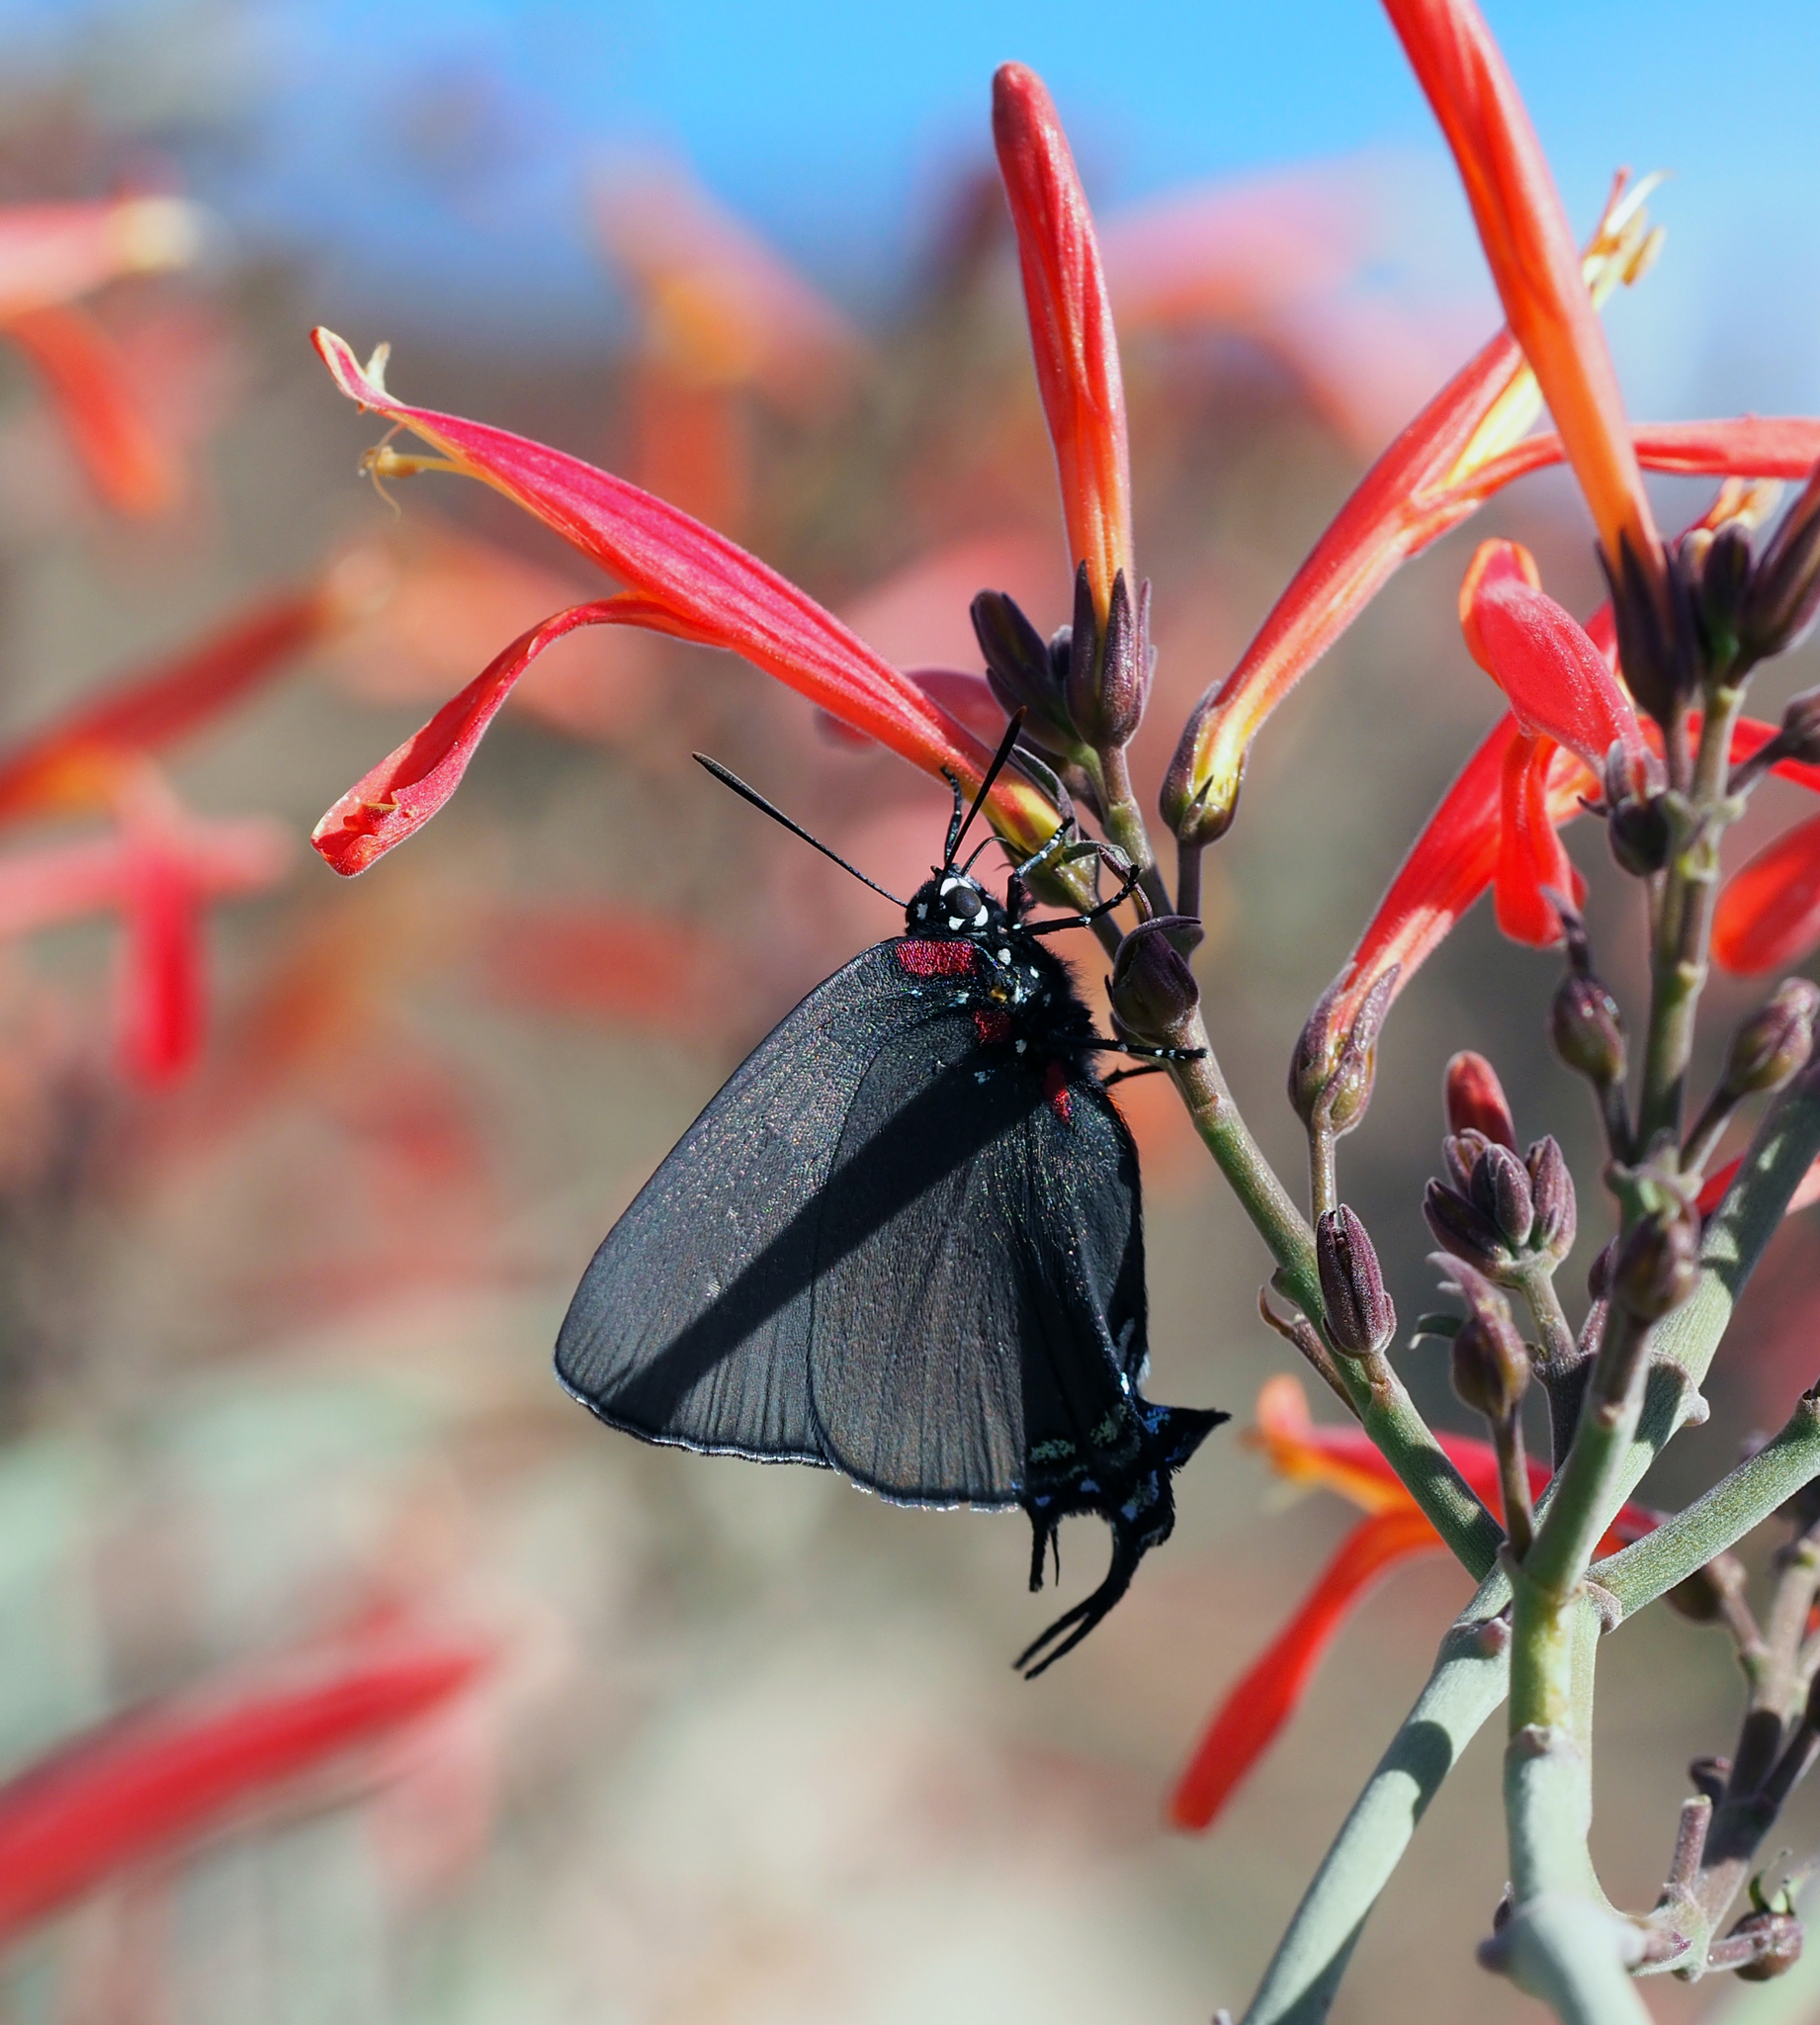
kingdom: Animalia
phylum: Arthropoda
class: Insecta
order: Lepidoptera
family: Lycaenidae
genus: Atlides
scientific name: Atlides halesus
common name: Great purple hairstreak
